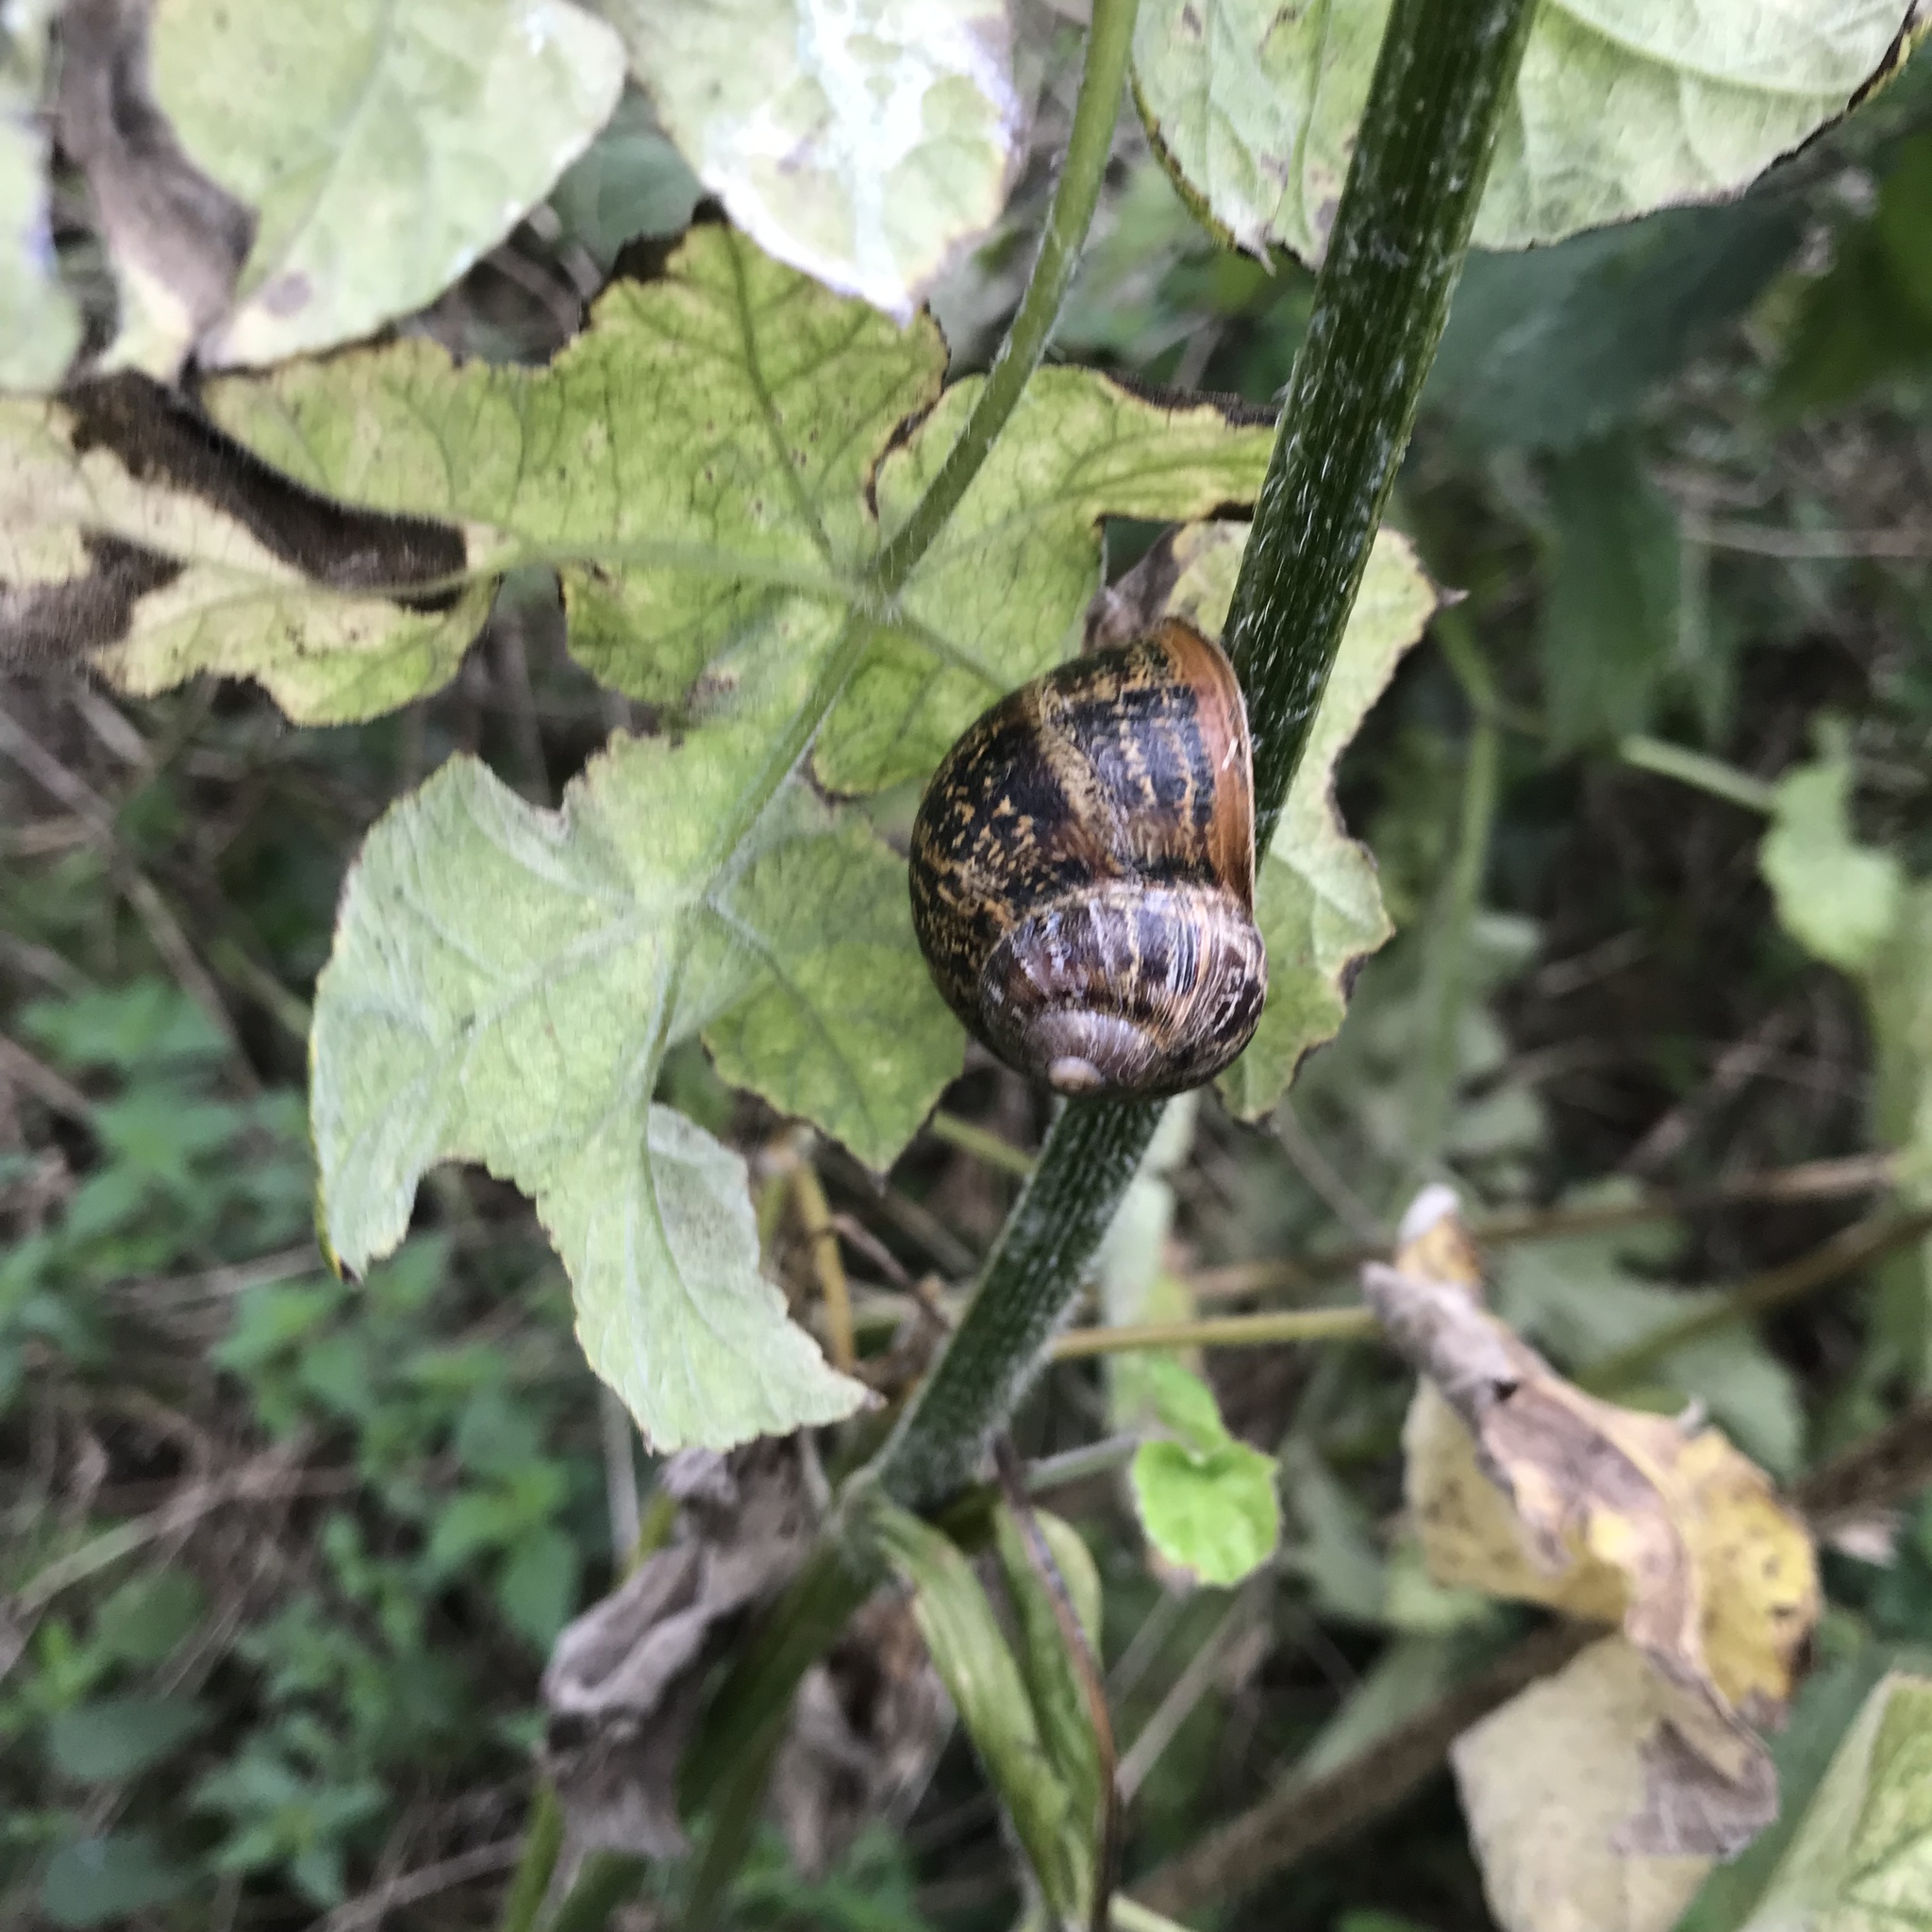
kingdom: Animalia
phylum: Mollusca
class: Gastropoda
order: Stylommatophora
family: Helicidae
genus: Cornu
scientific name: Cornu aspersum
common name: Brown garden snail
